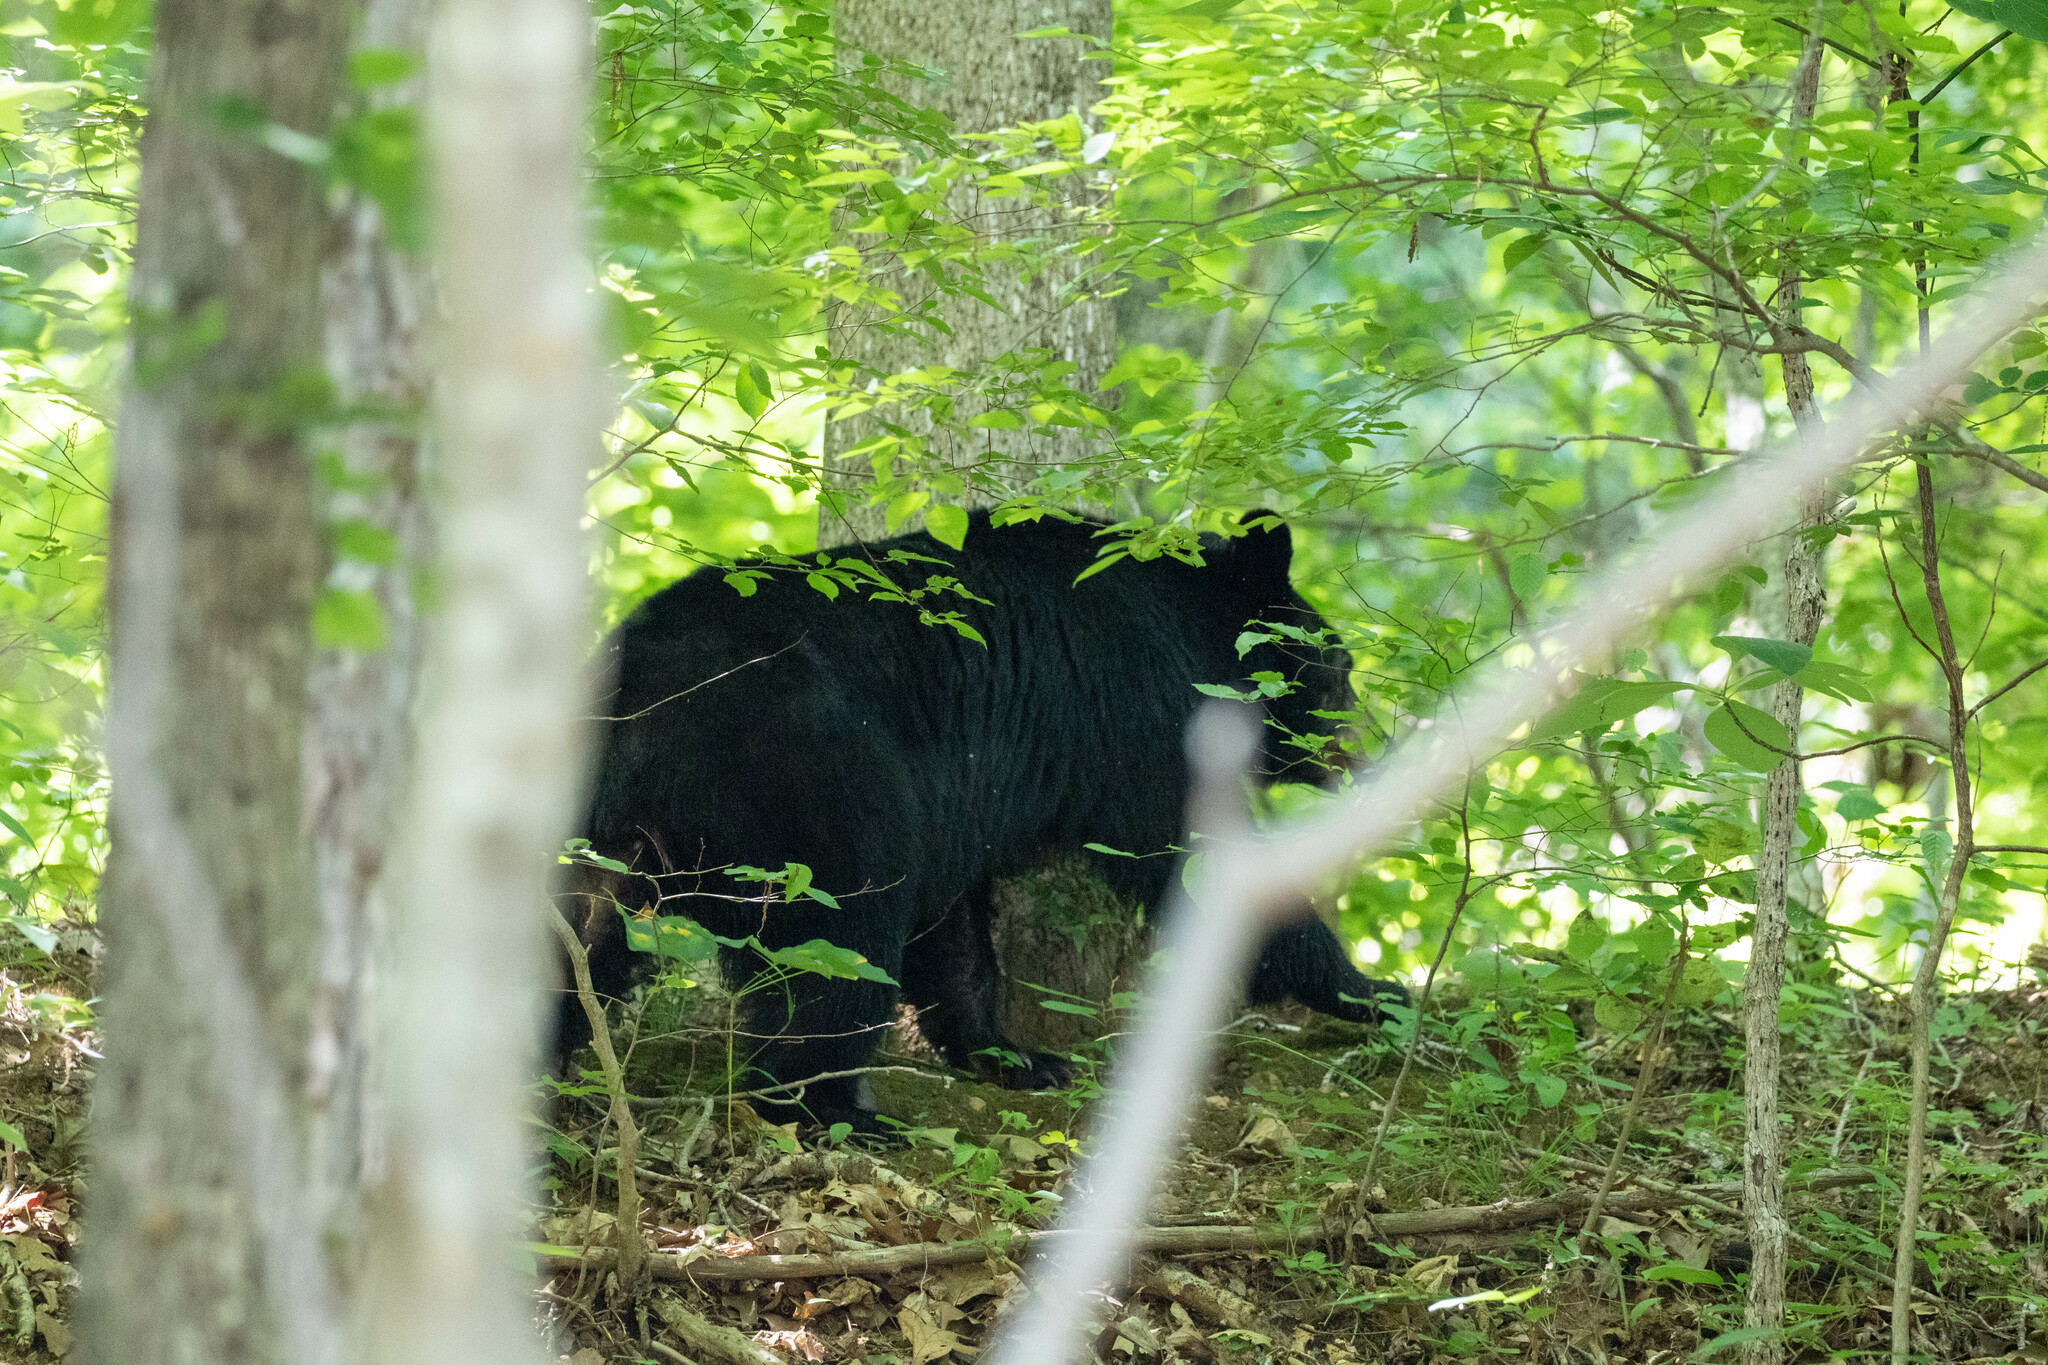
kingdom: Animalia
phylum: Chordata
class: Mammalia
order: Carnivora
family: Ursidae
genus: Ursus
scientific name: Ursus americanus
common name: American black bear
